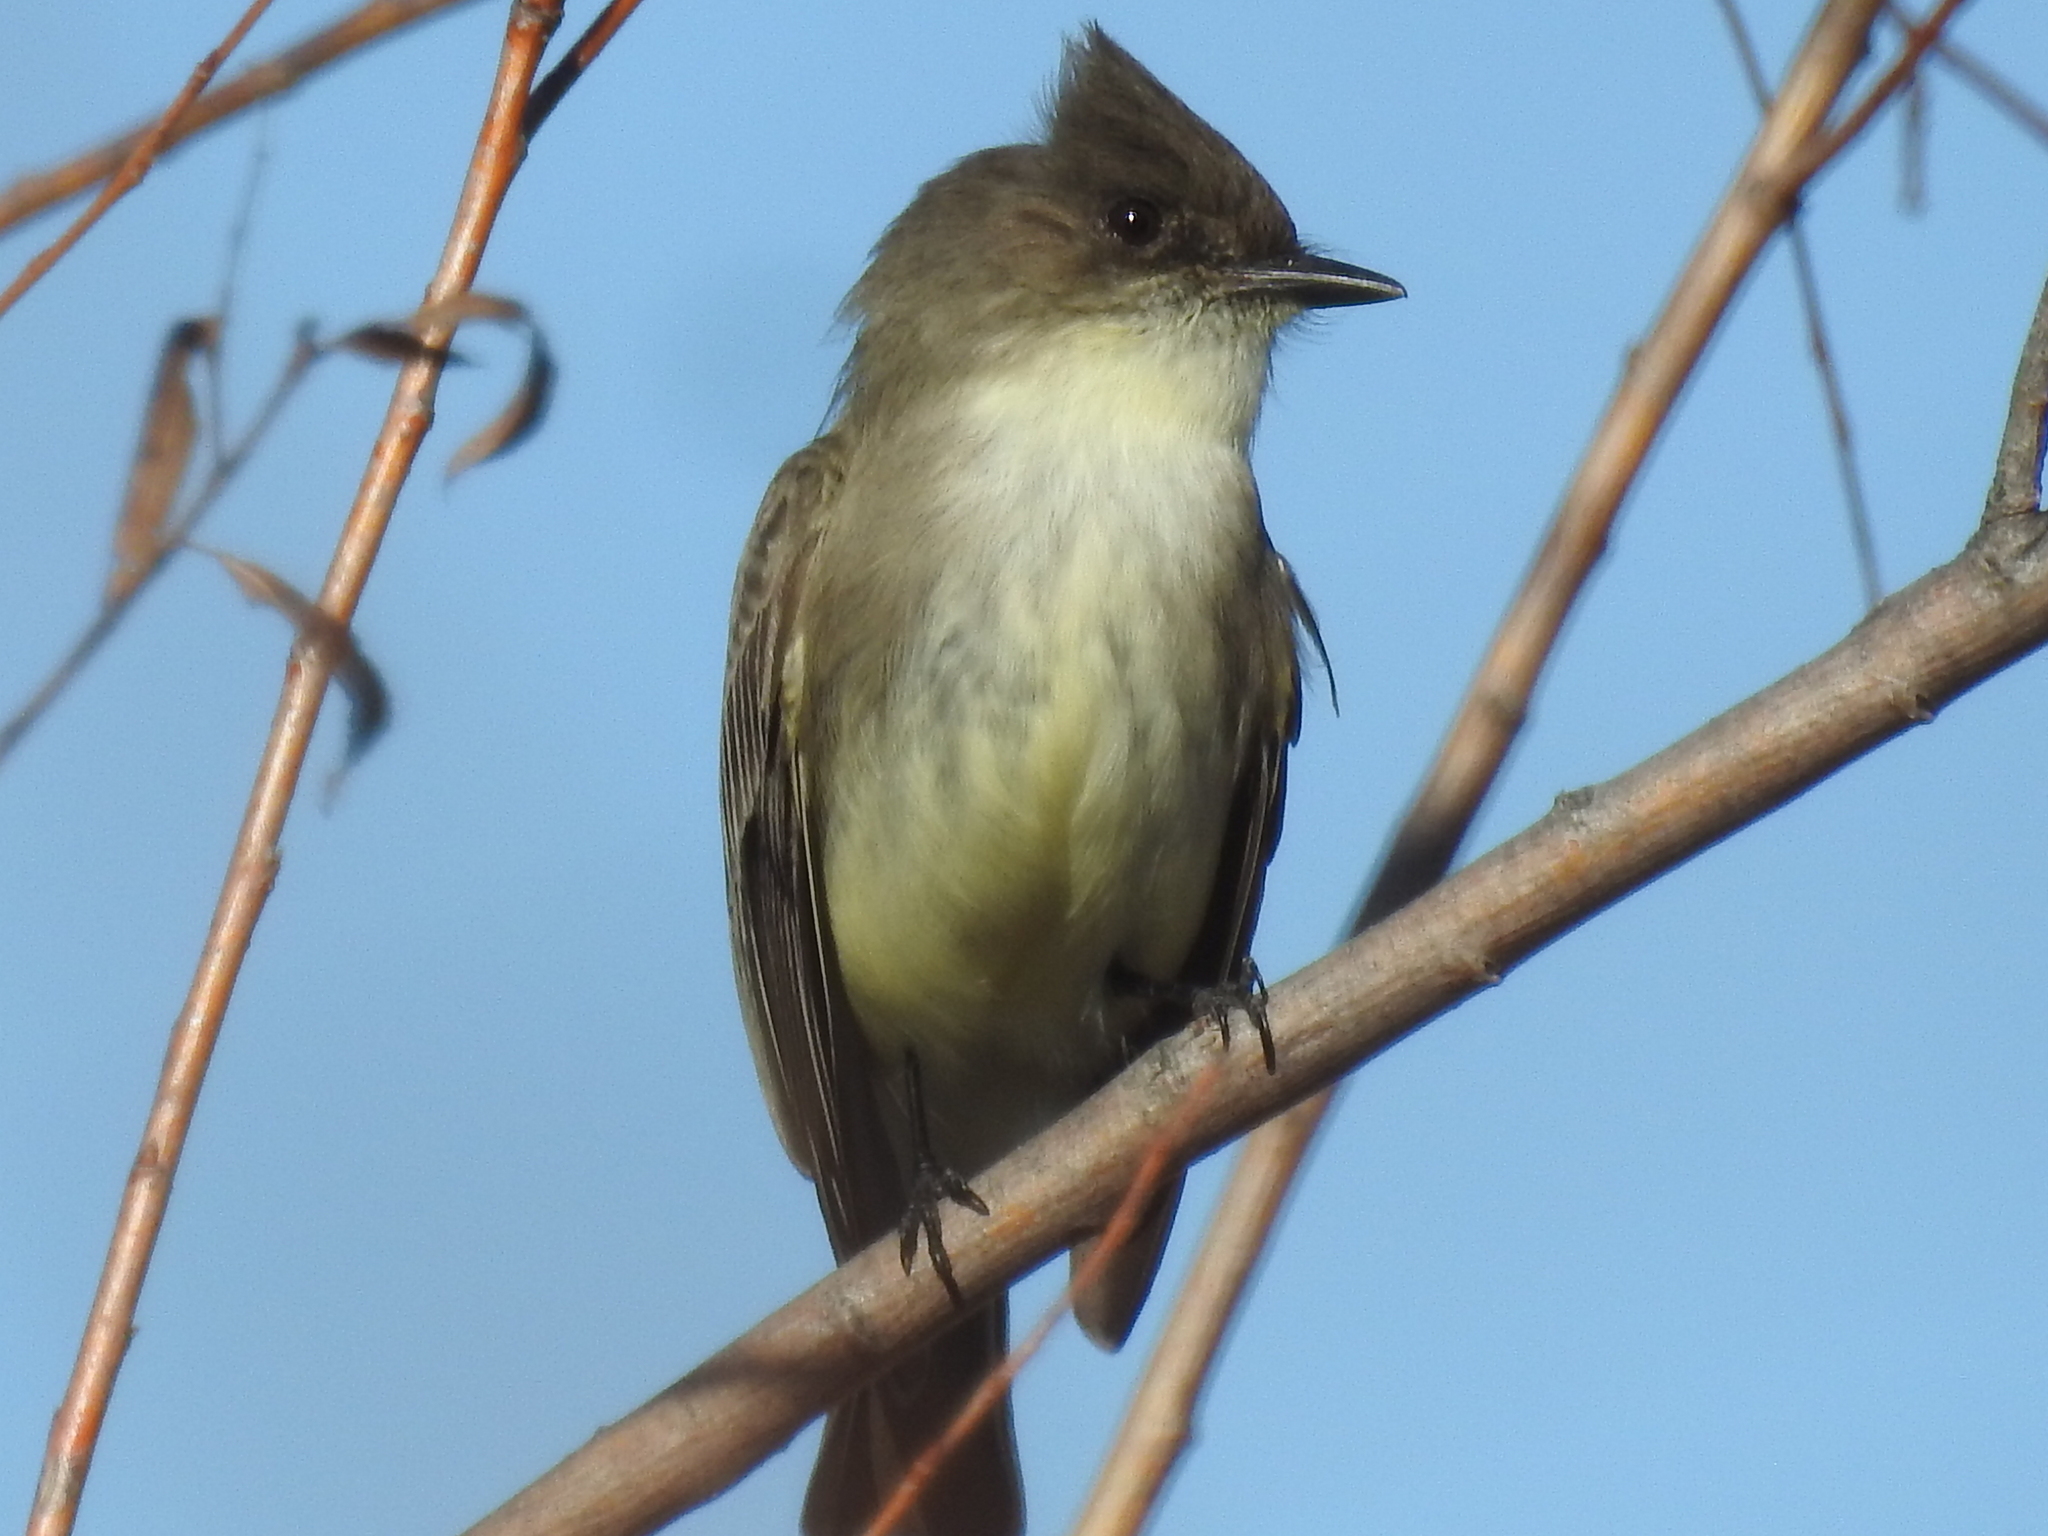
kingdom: Animalia
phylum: Chordata
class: Aves
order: Passeriformes
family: Tyrannidae
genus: Sayornis
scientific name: Sayornis phoebe
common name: Eastern phoebe
